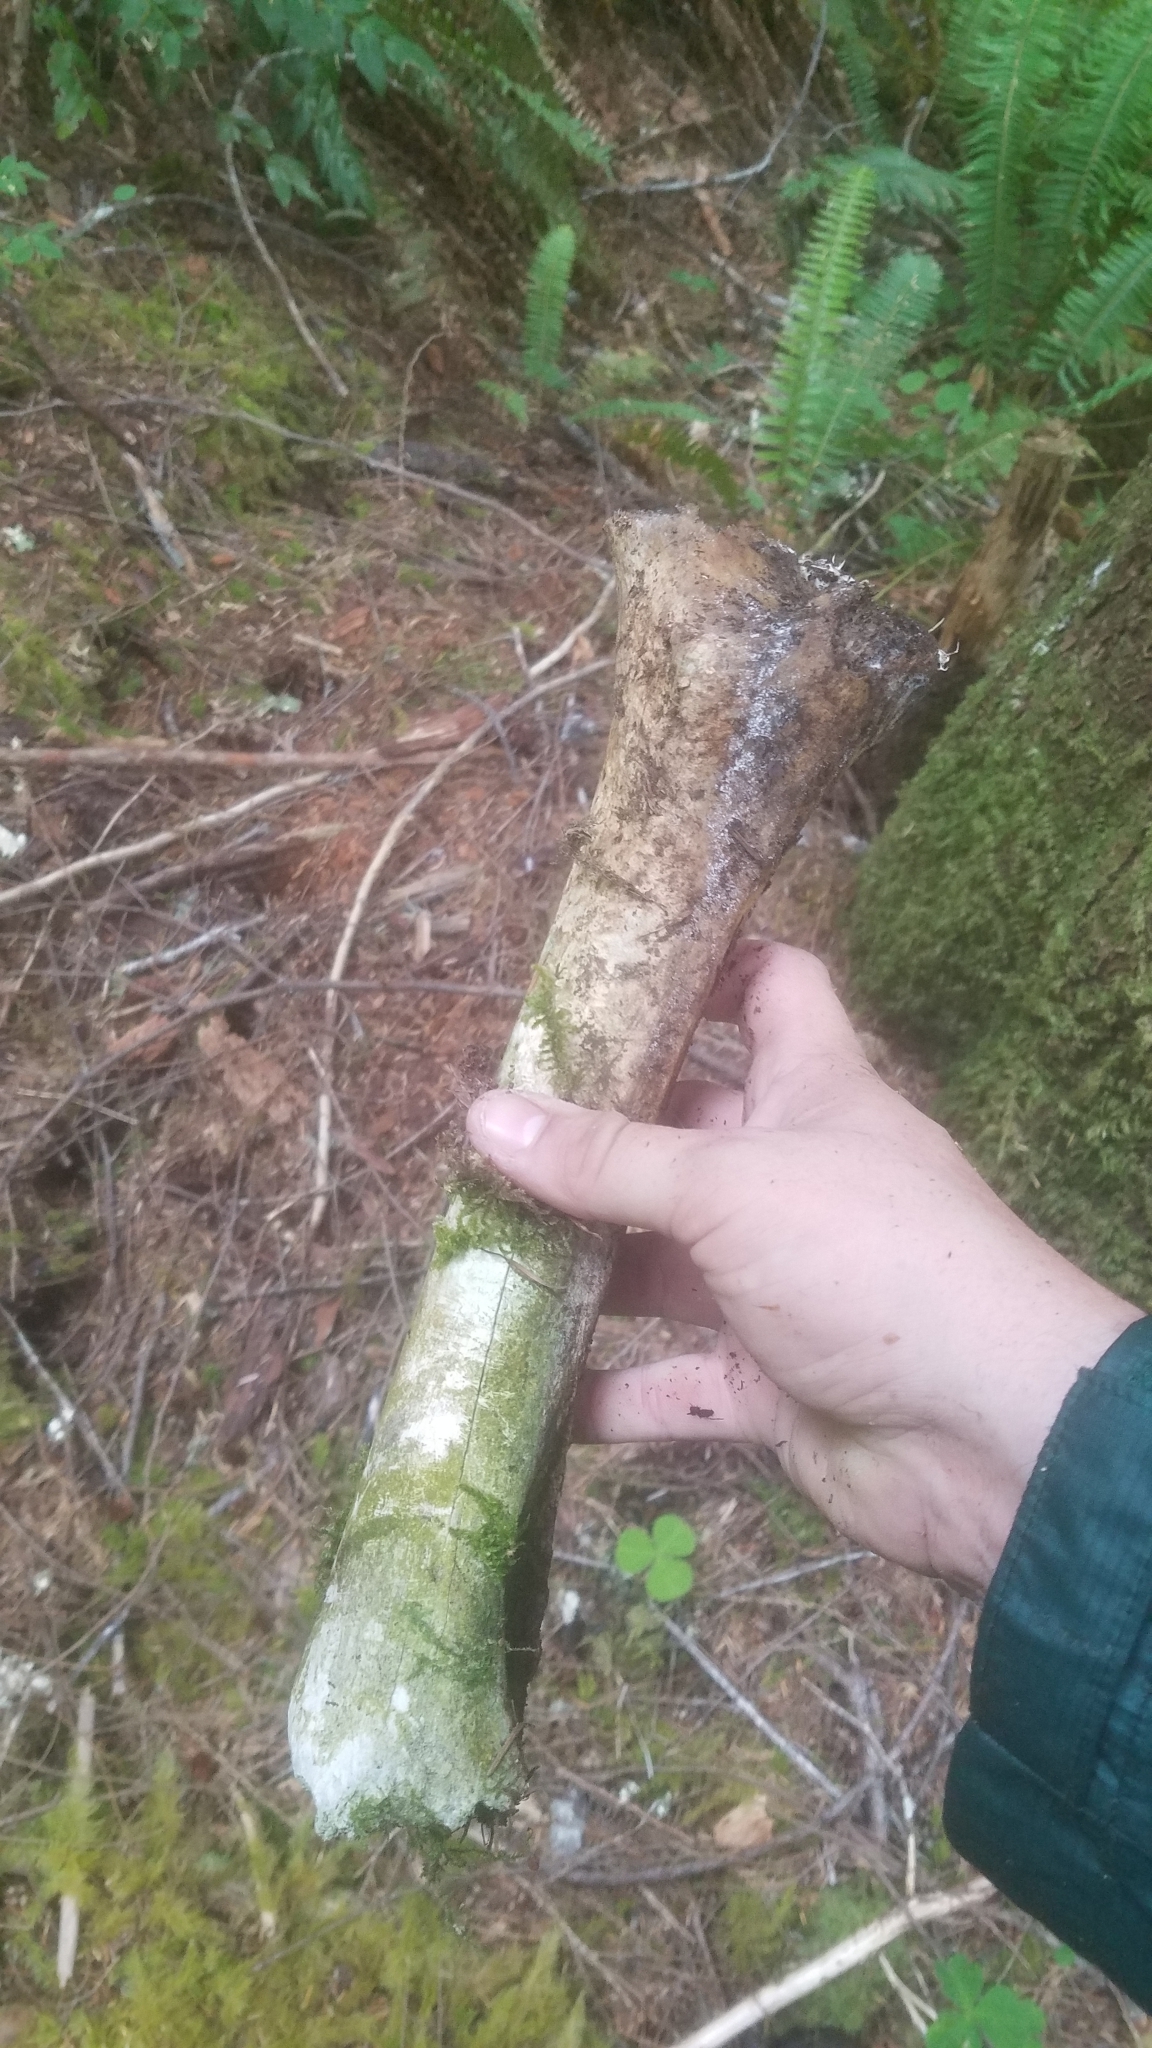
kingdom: Animalia
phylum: Chordata
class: Mammalia
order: Artiodactyla
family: Cervidae
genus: Cervus
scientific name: Cervus elaphus
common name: Red deer
